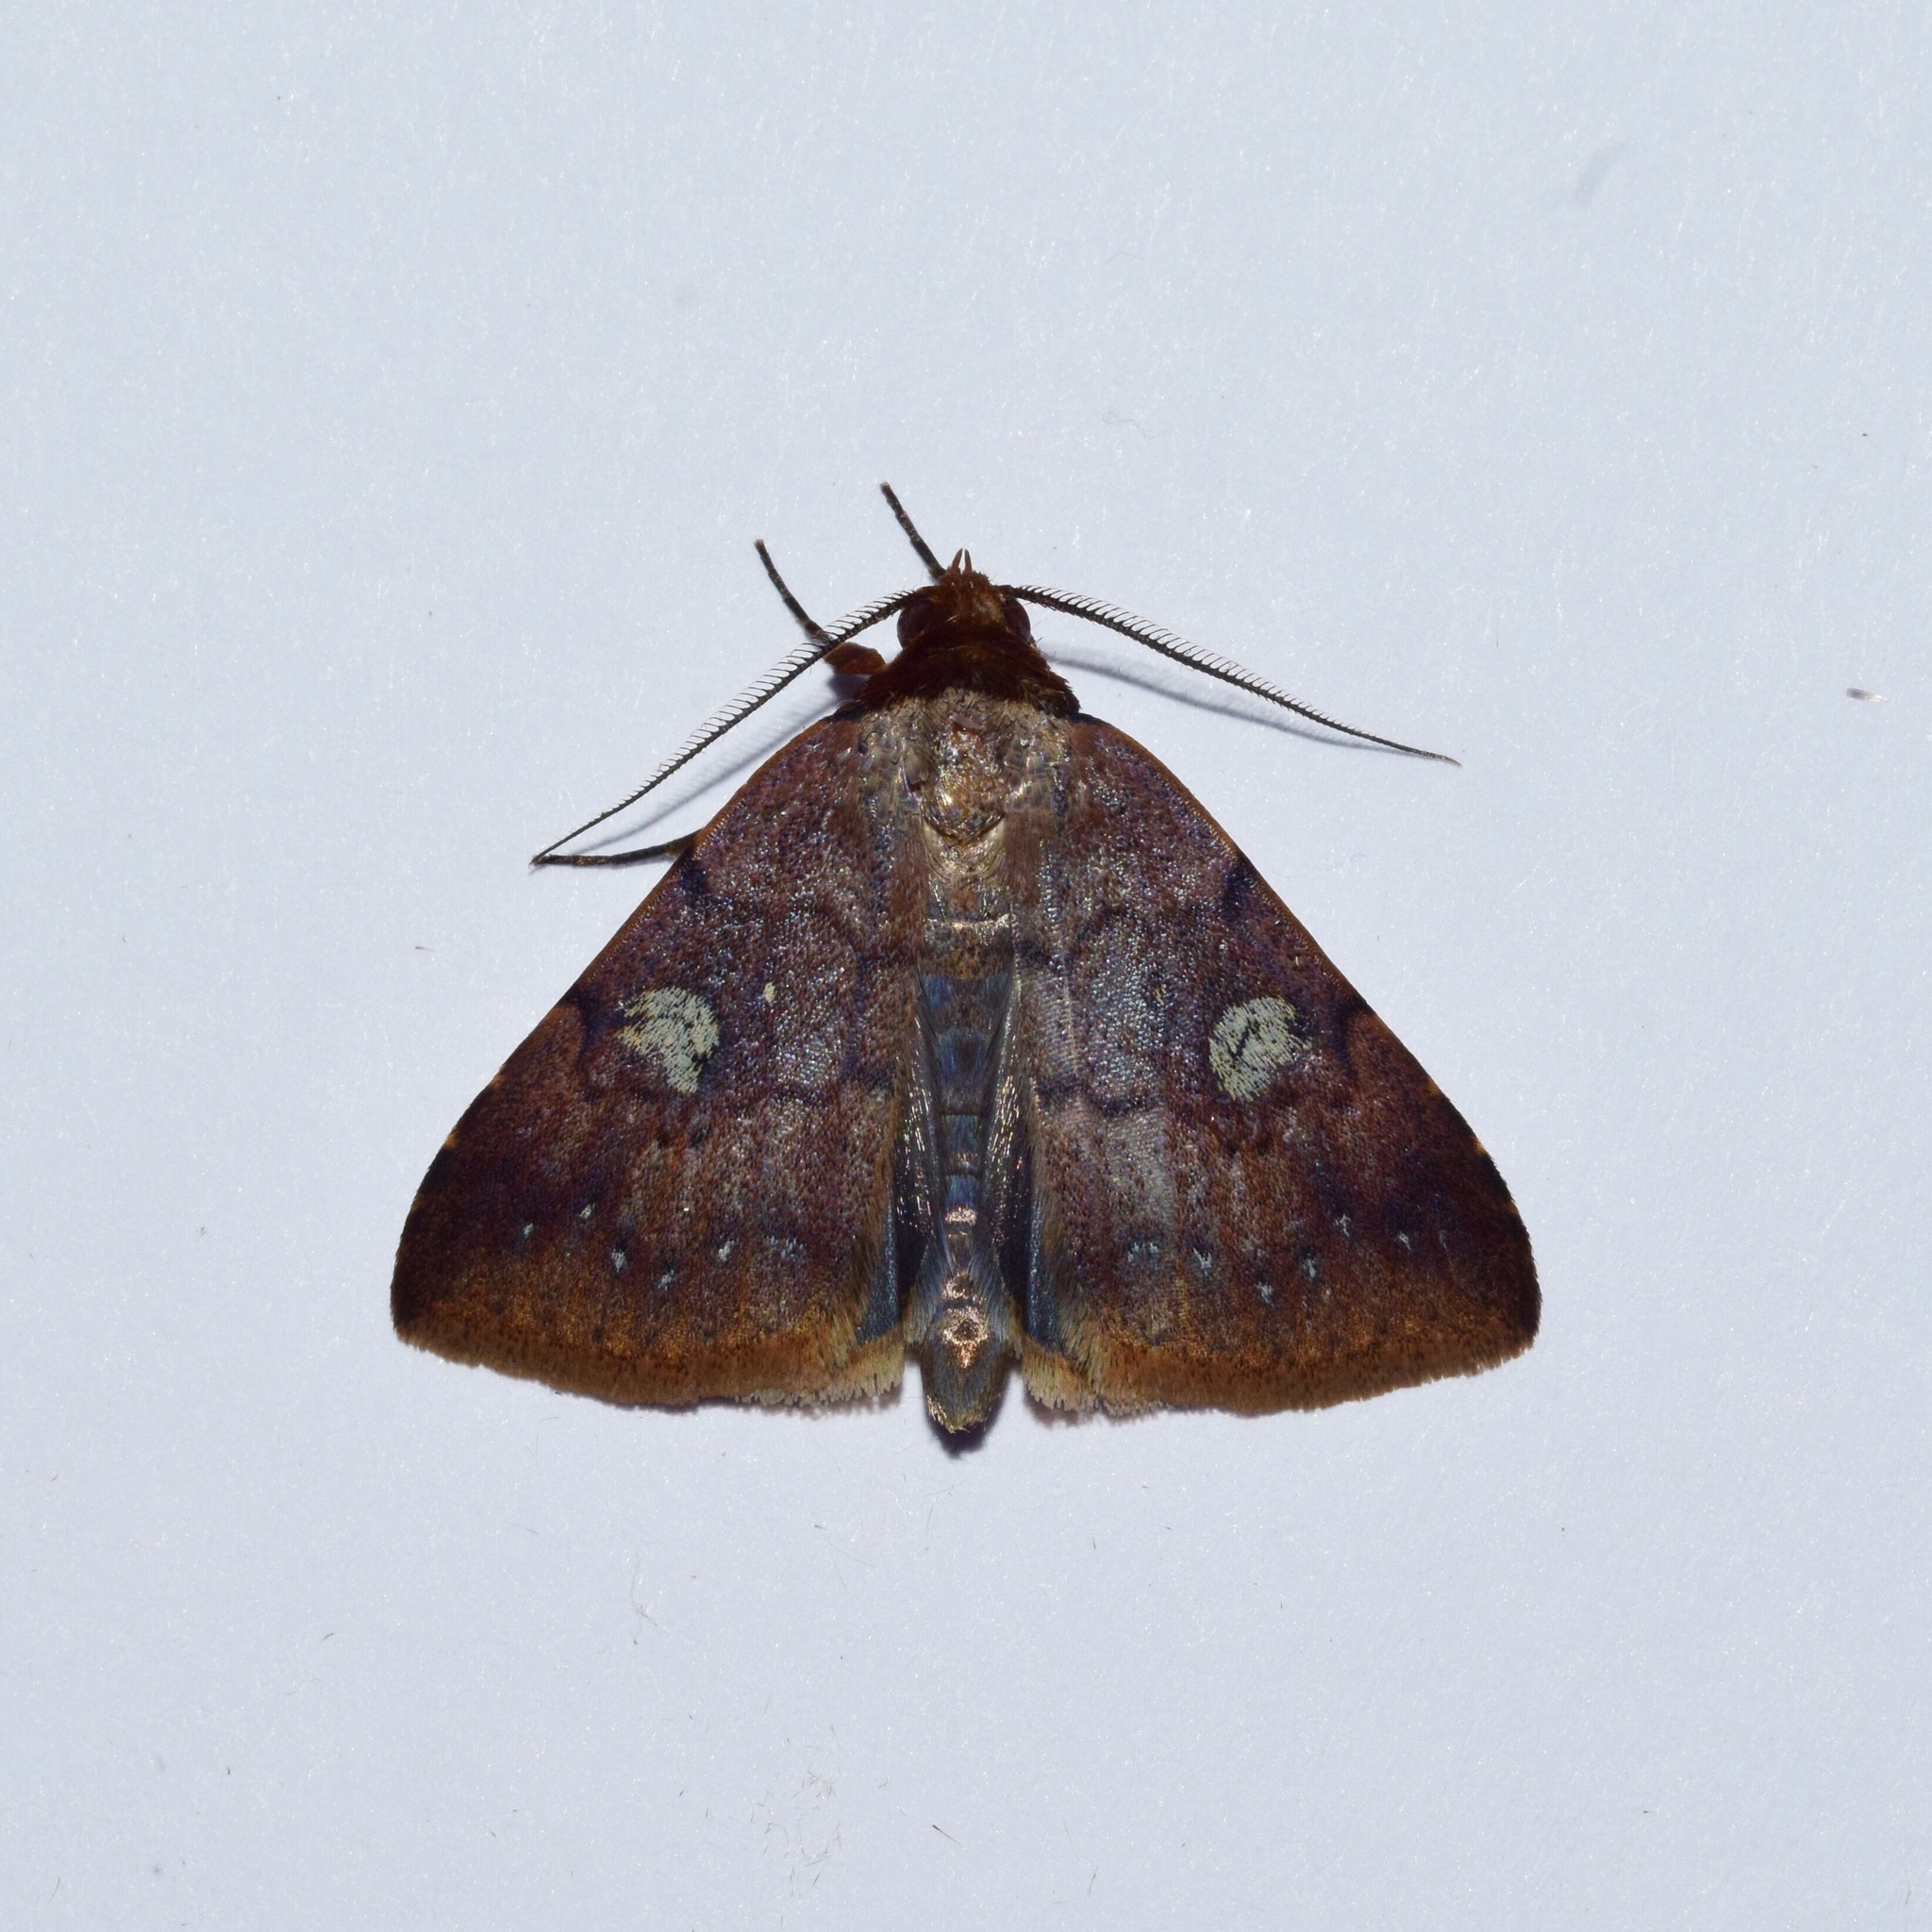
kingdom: Animalia
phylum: Arthropoda
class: Insecta
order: Lepidoptera
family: Erebidae
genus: Plecoptera
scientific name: Plecoptera punctilineata
